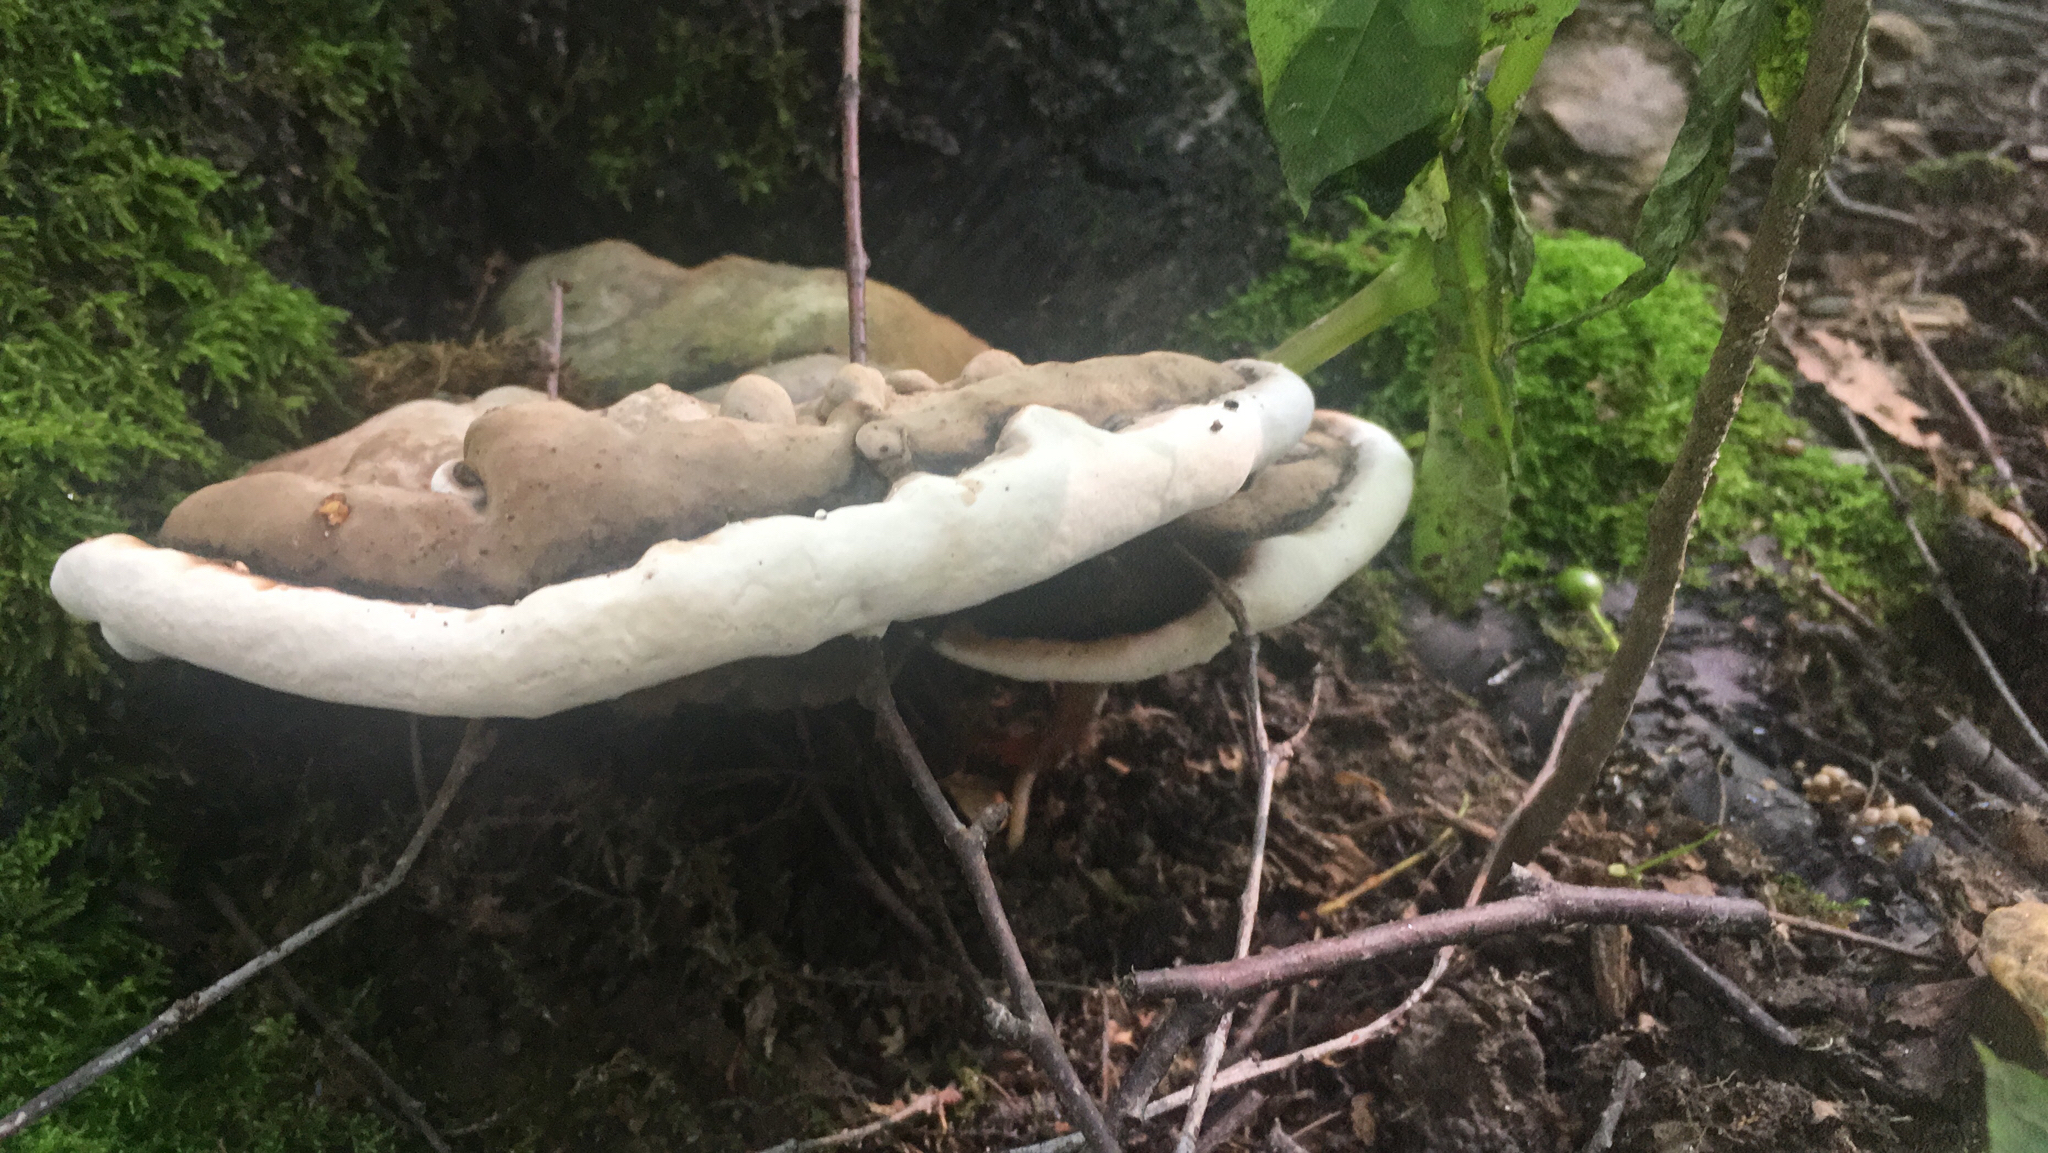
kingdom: Fungi
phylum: Basidiomycota
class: Agaricomycetes
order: Polyporales
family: Polyporaceae
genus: Ganoderma
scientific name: Ganoderma applanatum
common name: Artist's bracket
